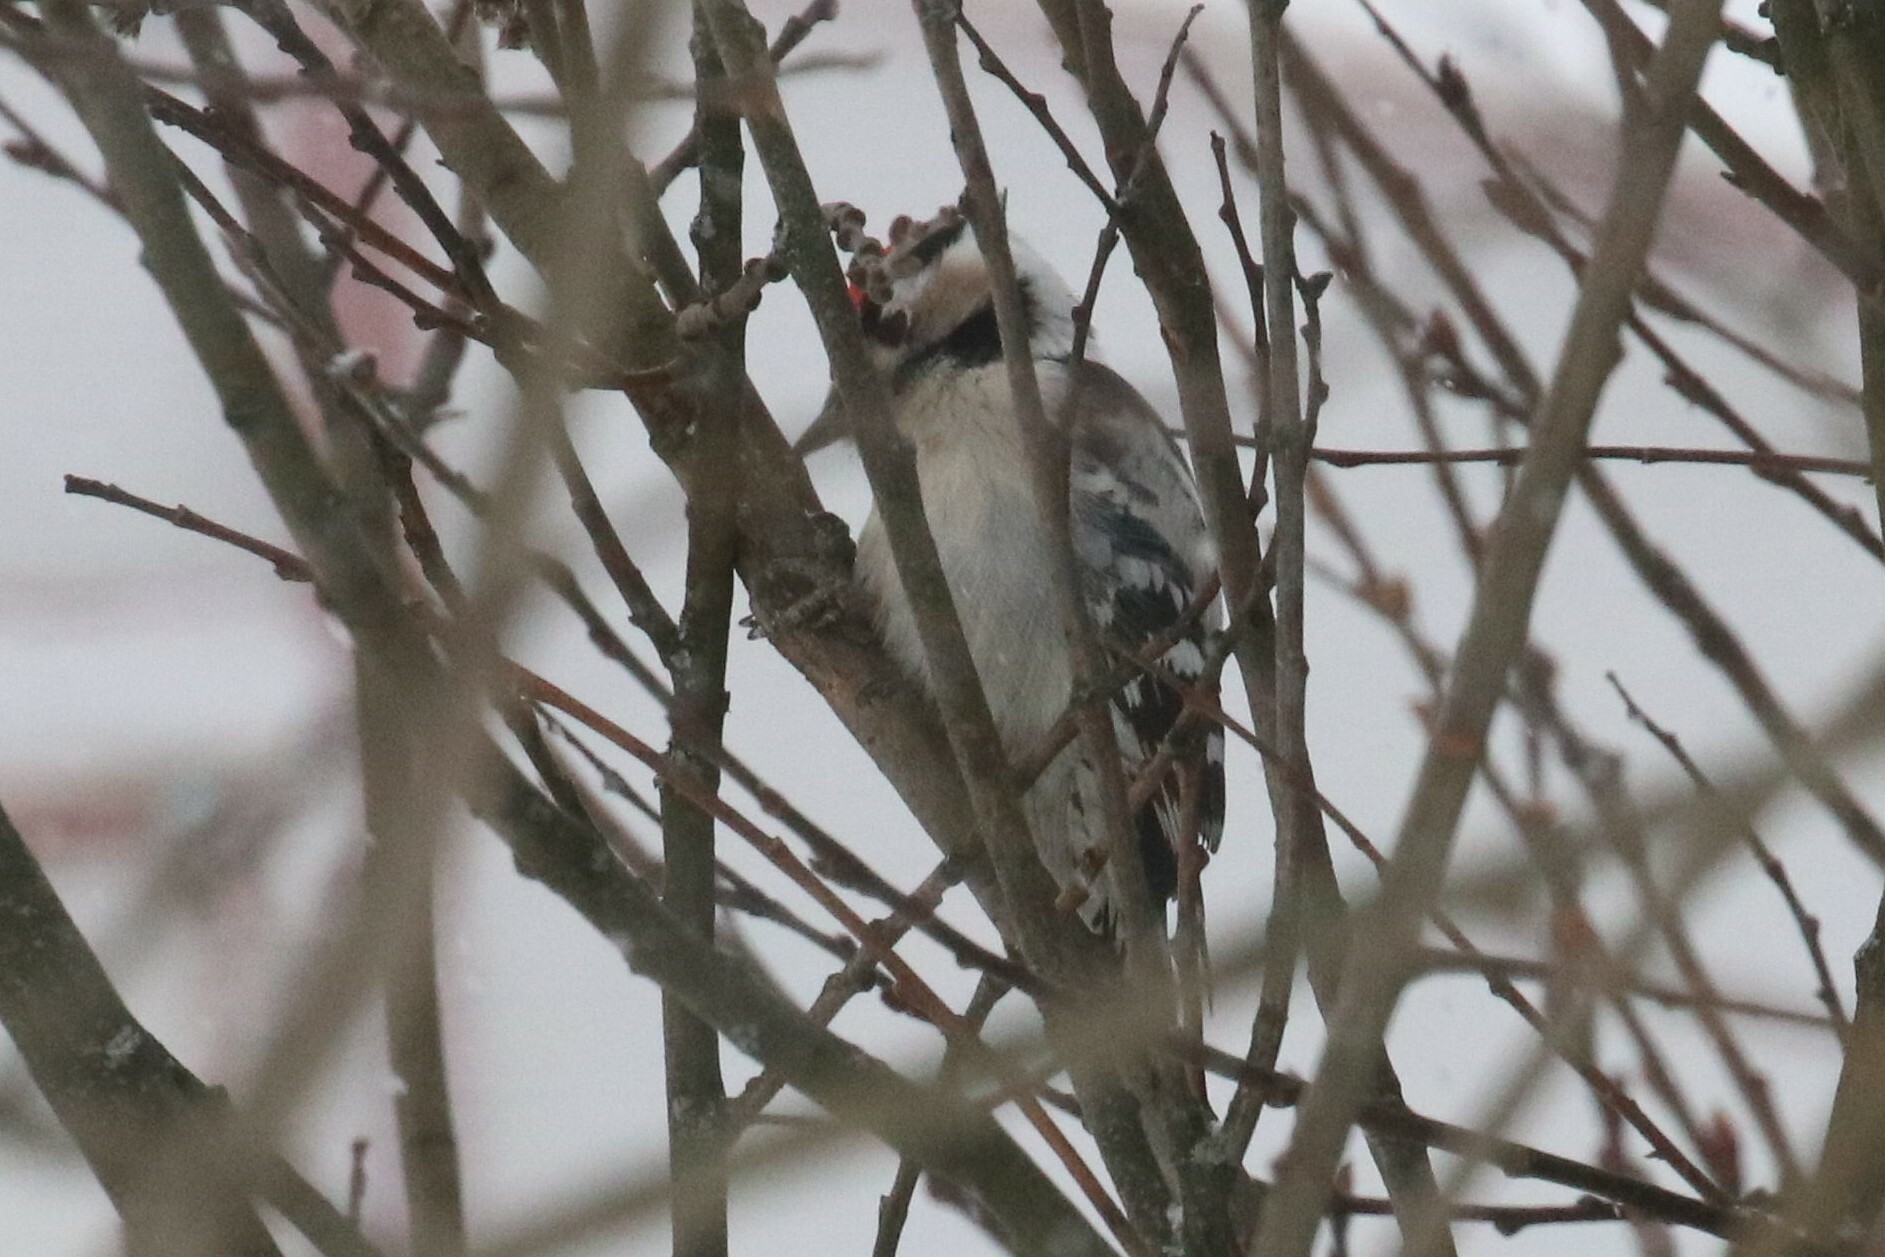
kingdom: Animalia
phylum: Chordata
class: Aves
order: Piciformes
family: Picidae
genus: Dryobates
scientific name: Dryobates minor
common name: Lesser spotted woodpecker
